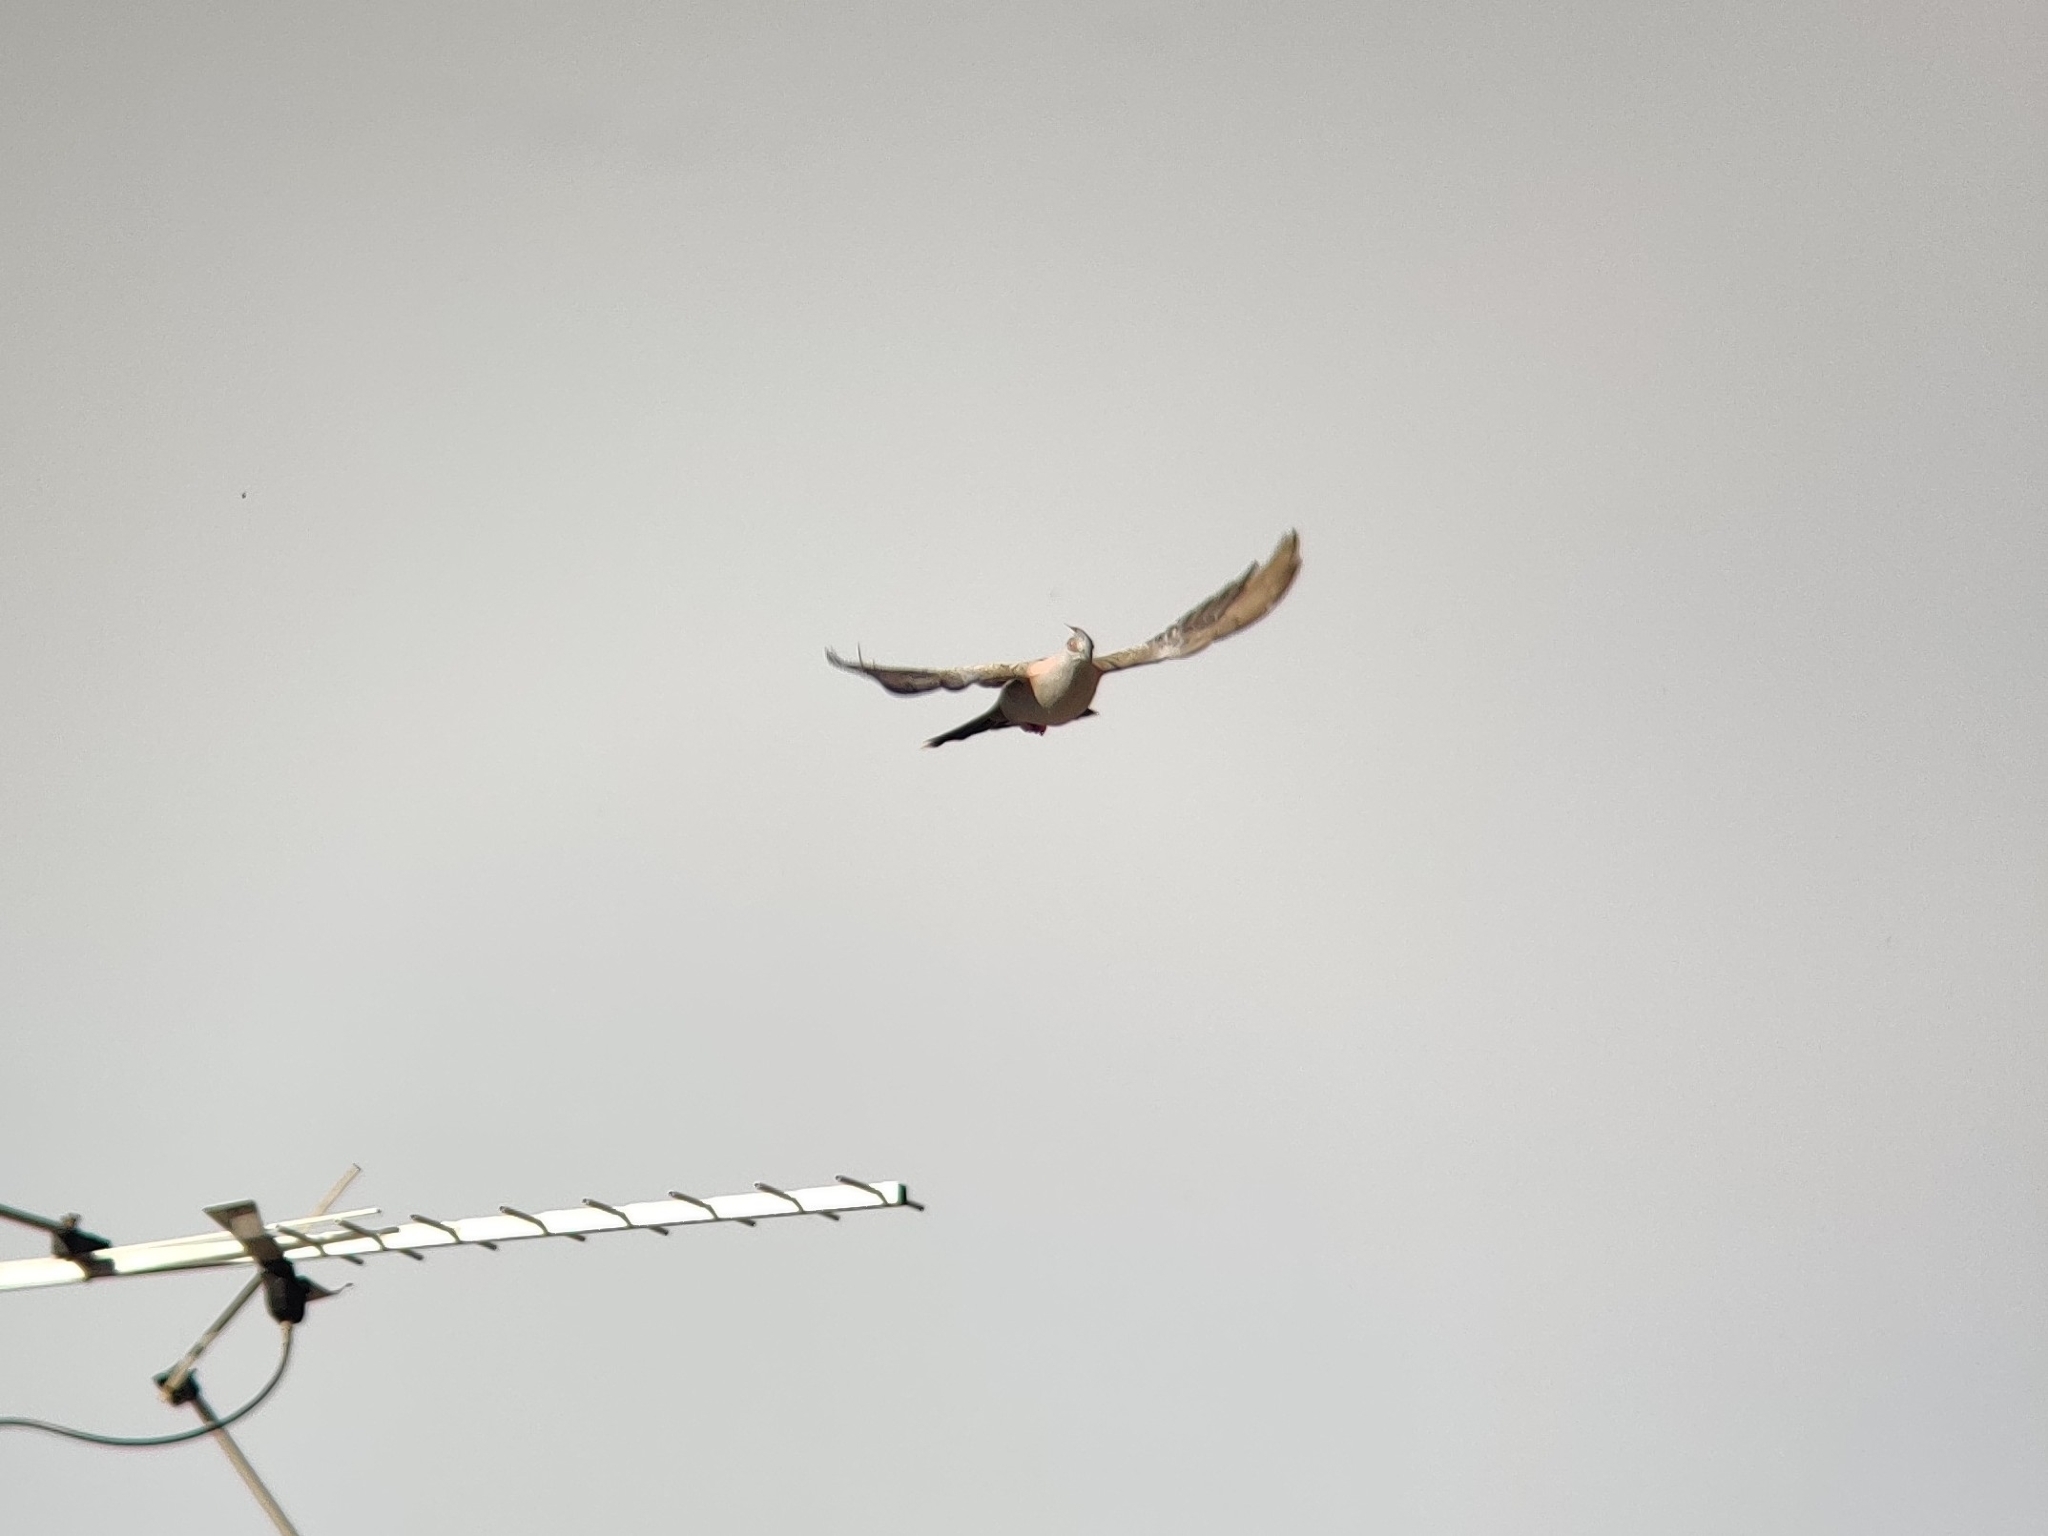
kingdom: Animalia
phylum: Chordata
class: Aves
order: Columbiformes
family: Columbidae
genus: Ocyphaps
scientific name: Ocyphaps lophotes
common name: Crested pigeon
